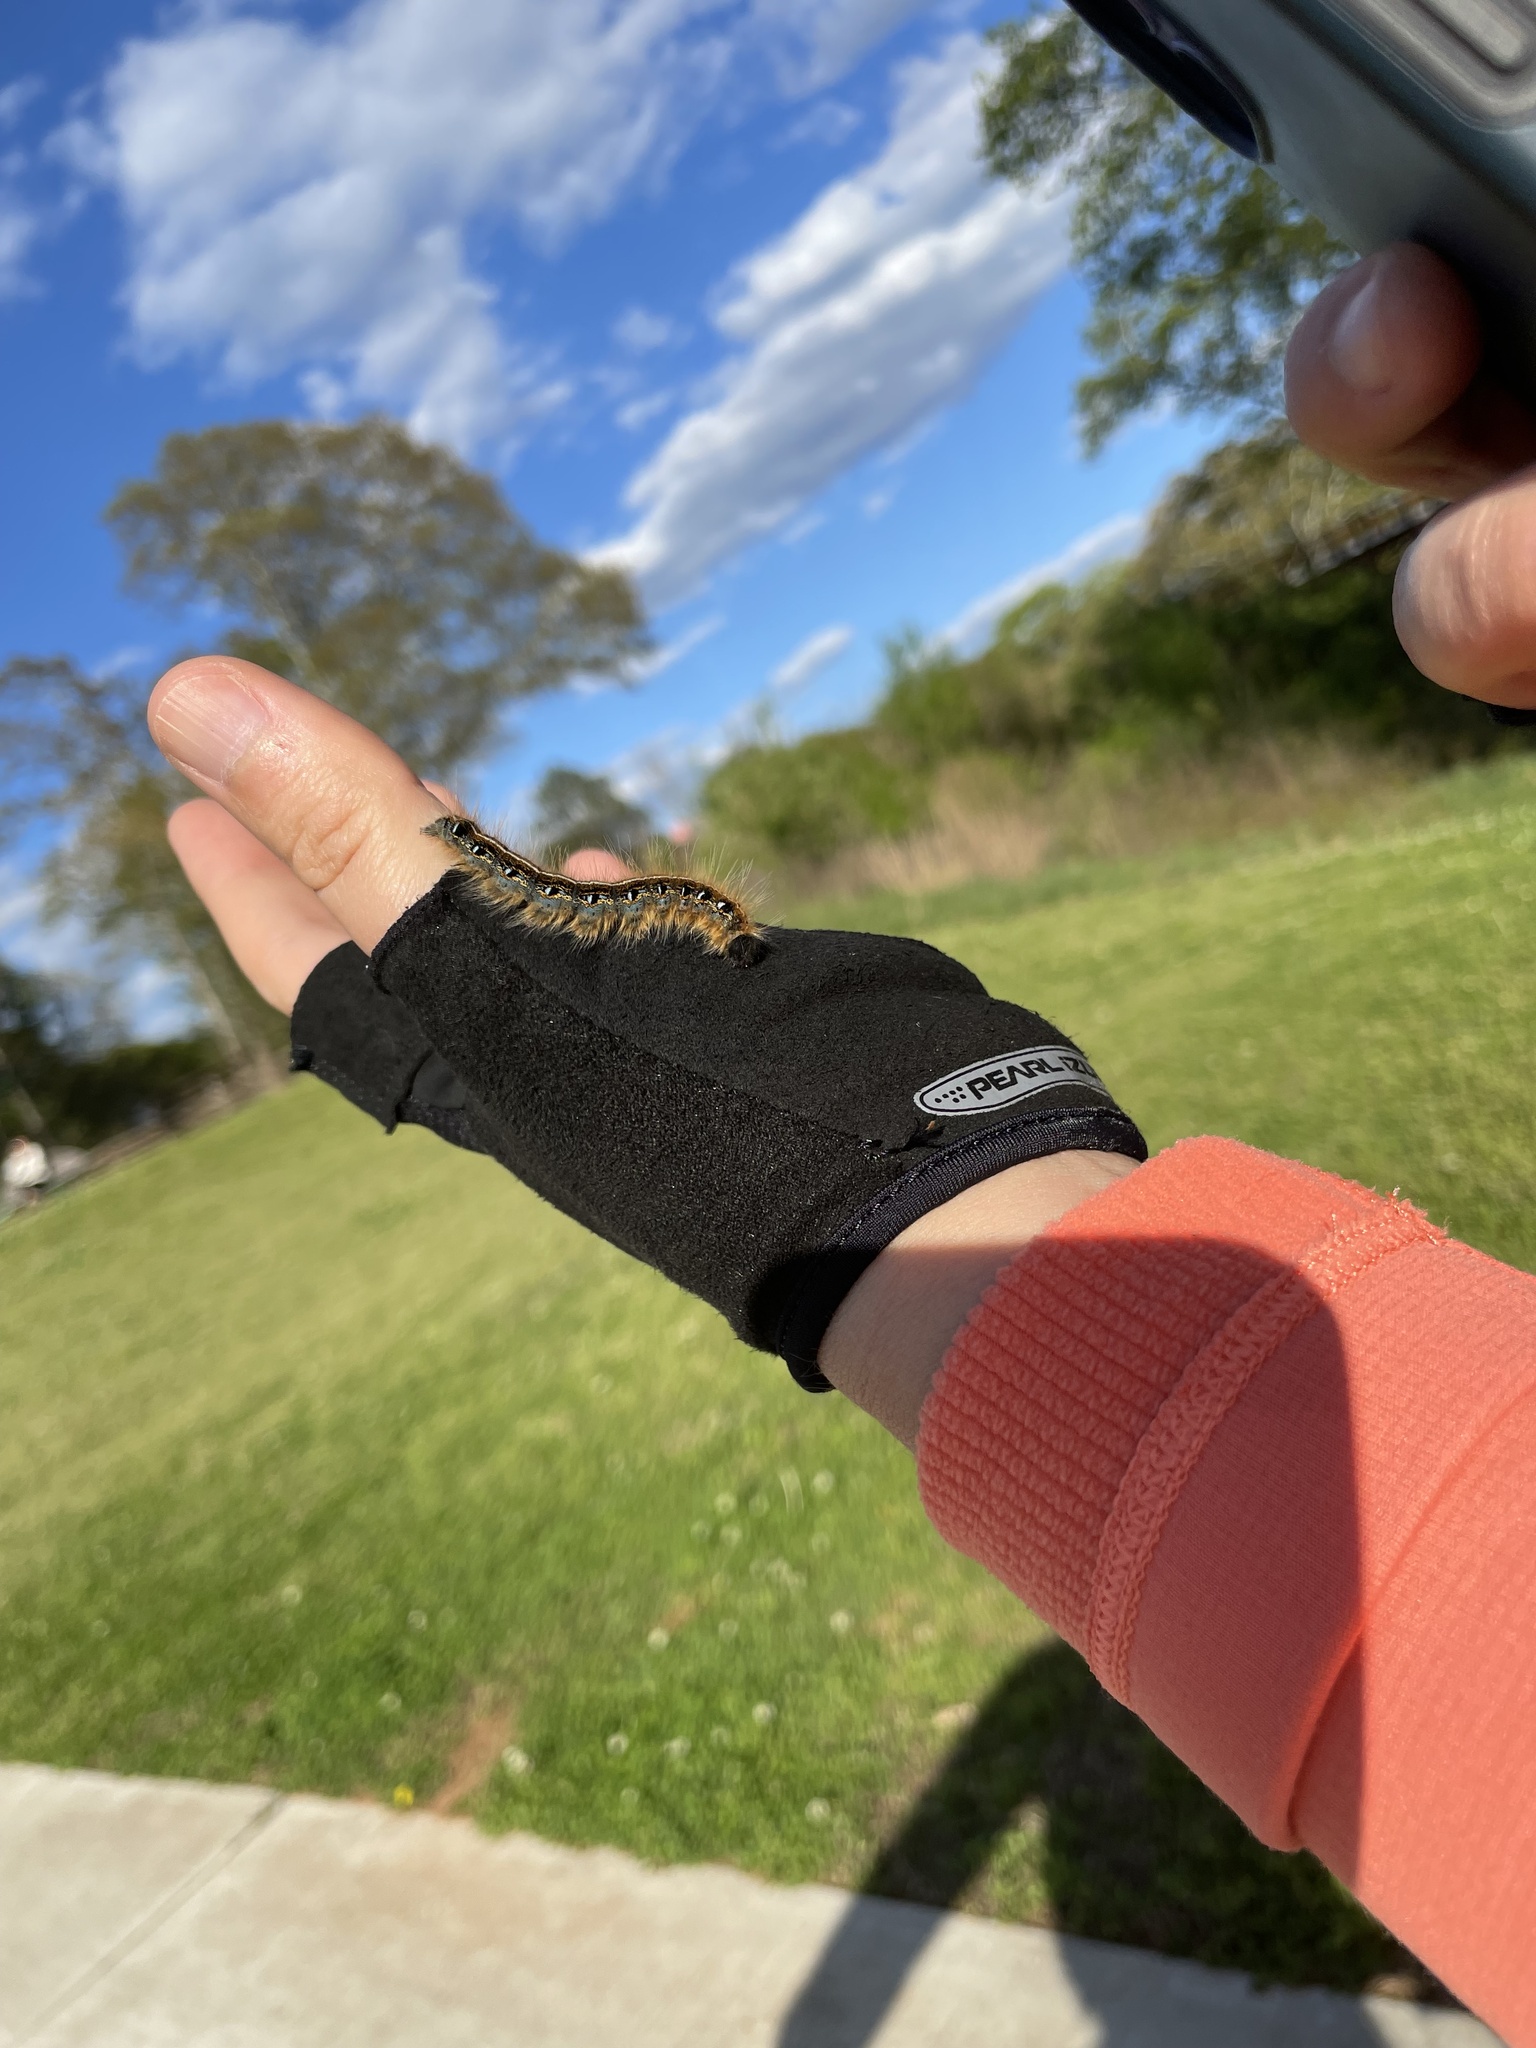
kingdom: Animalia
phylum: Arthropoda
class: Insecta
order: Lepidoptera
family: Lasiocampidae
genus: Malacosoma
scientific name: Malacosoma americana
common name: Eastern tent caterpillar moth
